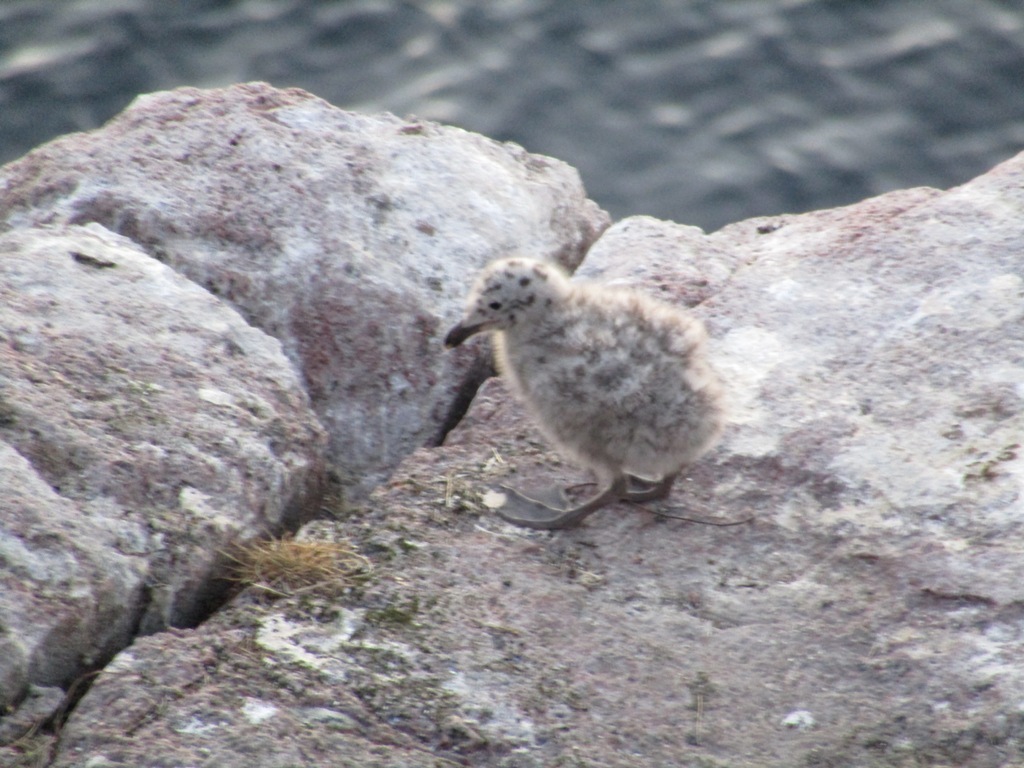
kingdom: Animalia
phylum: Chordata
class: Aves
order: Charadriiformes
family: Laridae
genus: Larus
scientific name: Larus argentatus
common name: Herring gull
